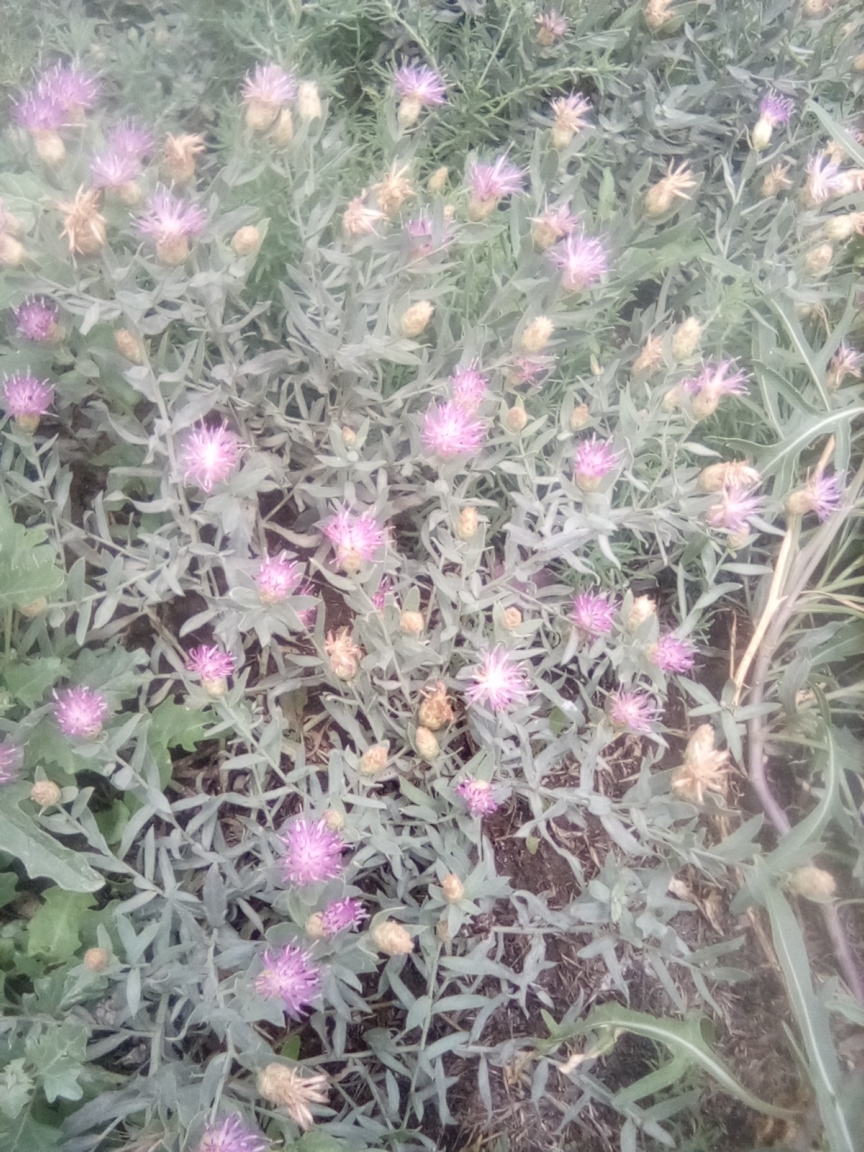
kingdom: Plantae
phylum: Tracheophyta
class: Magnoliopsida
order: Asterales
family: Asteraceae
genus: Leuzea
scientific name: Leuzea repens
